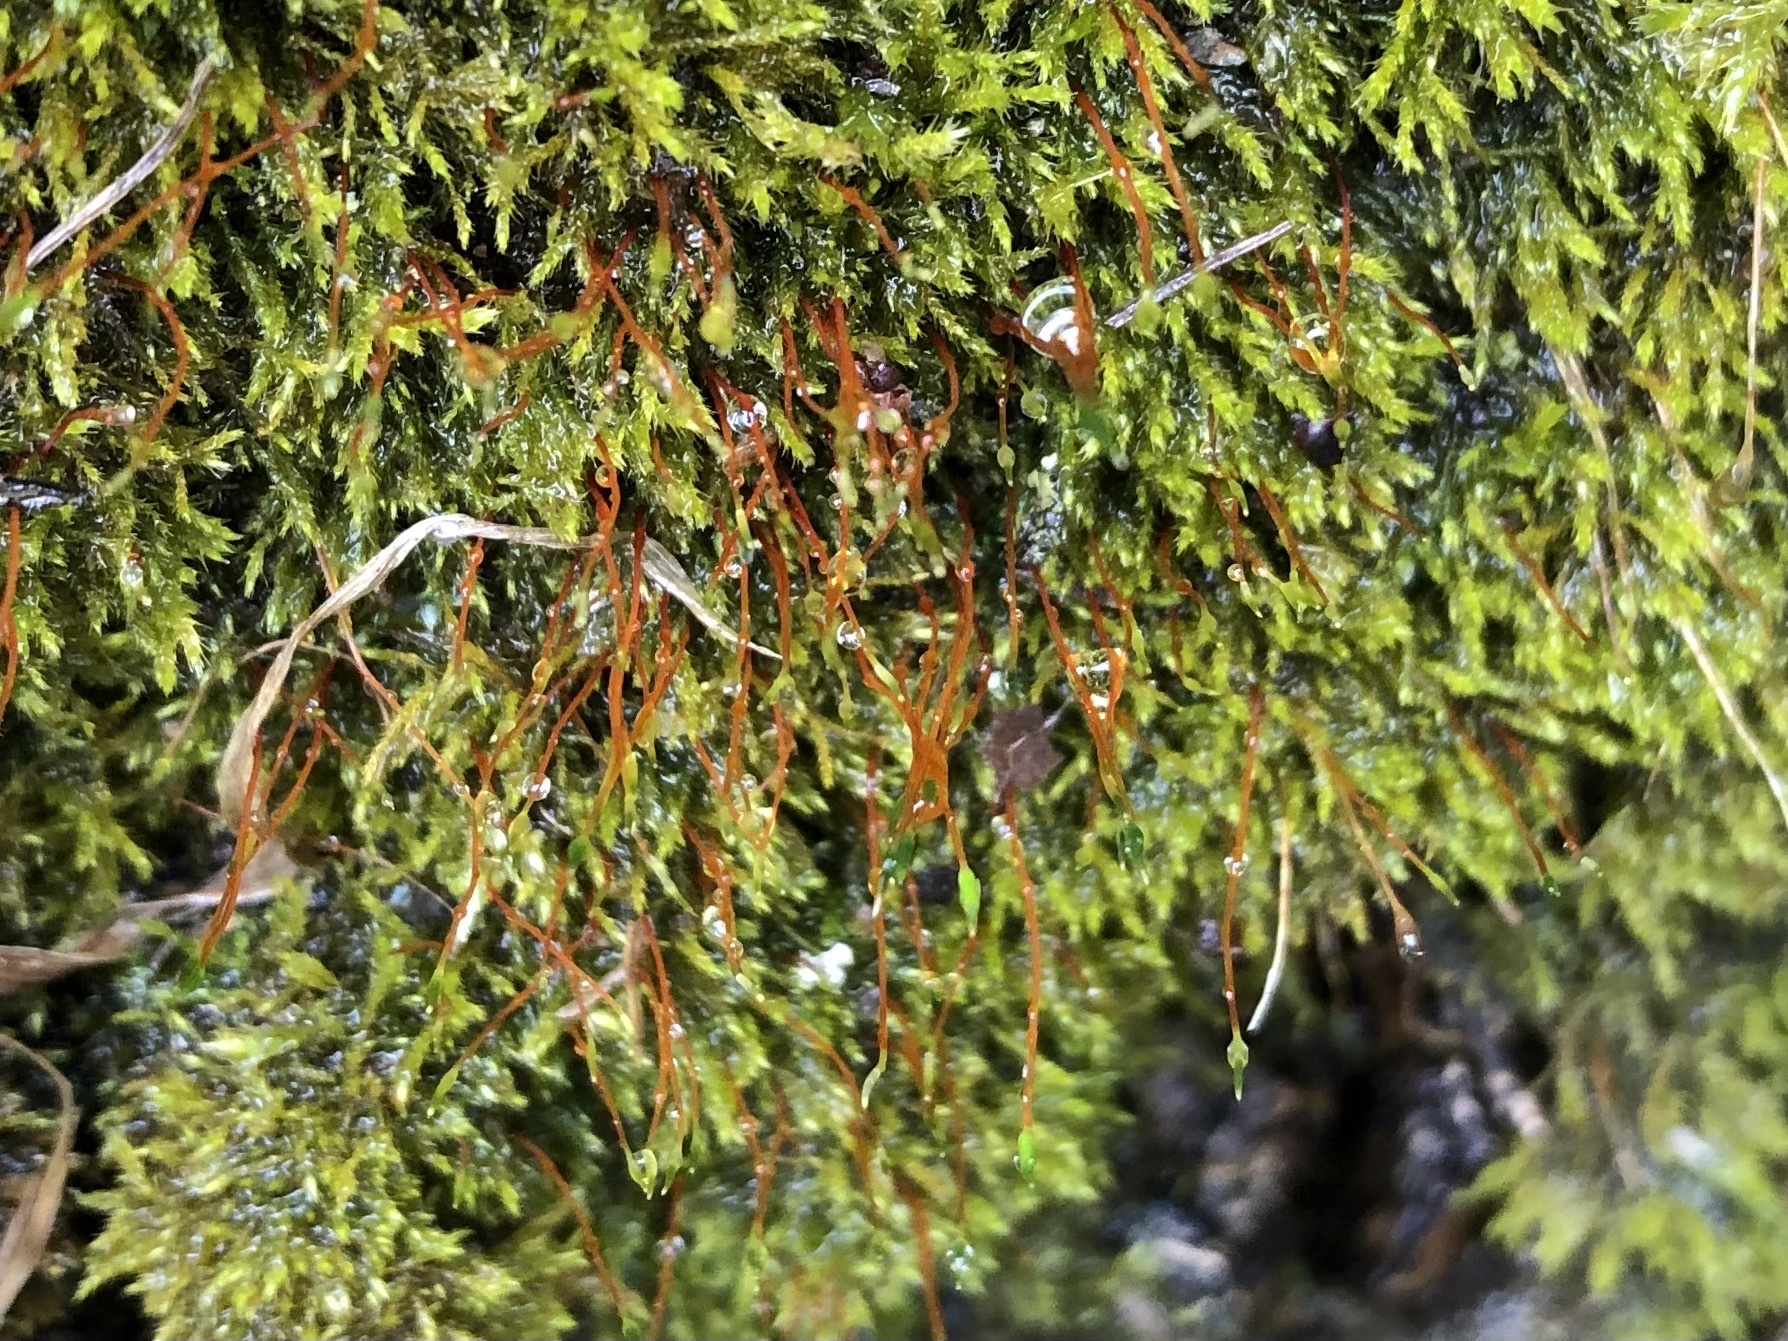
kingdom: Plantae
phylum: Bryophyta
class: Bryopsida
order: Hypnales
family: Amblystegiaceae
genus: Amblystegium
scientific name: Amblystegium serpens
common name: Jurkatzka's feather moss
